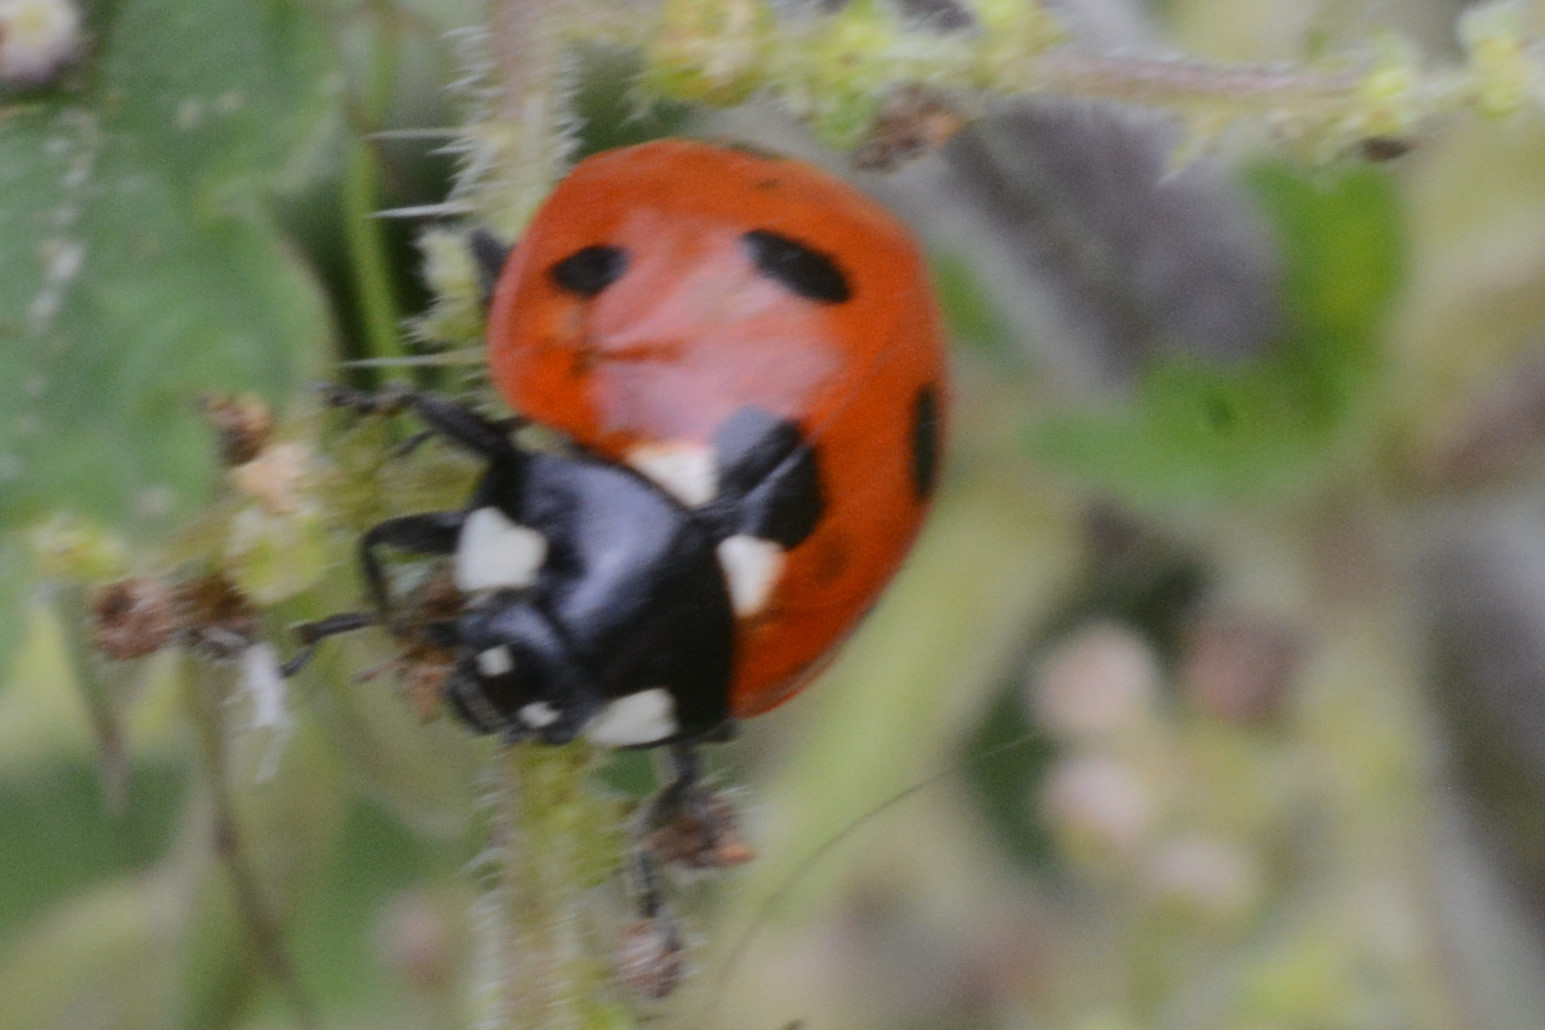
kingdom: Animalia
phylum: Arthropoda
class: Insecta
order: Coleoptera
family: Coccinellidae
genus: Coccinella
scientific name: Coccinella septempunctata
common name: Sevenspotted lady beetle
